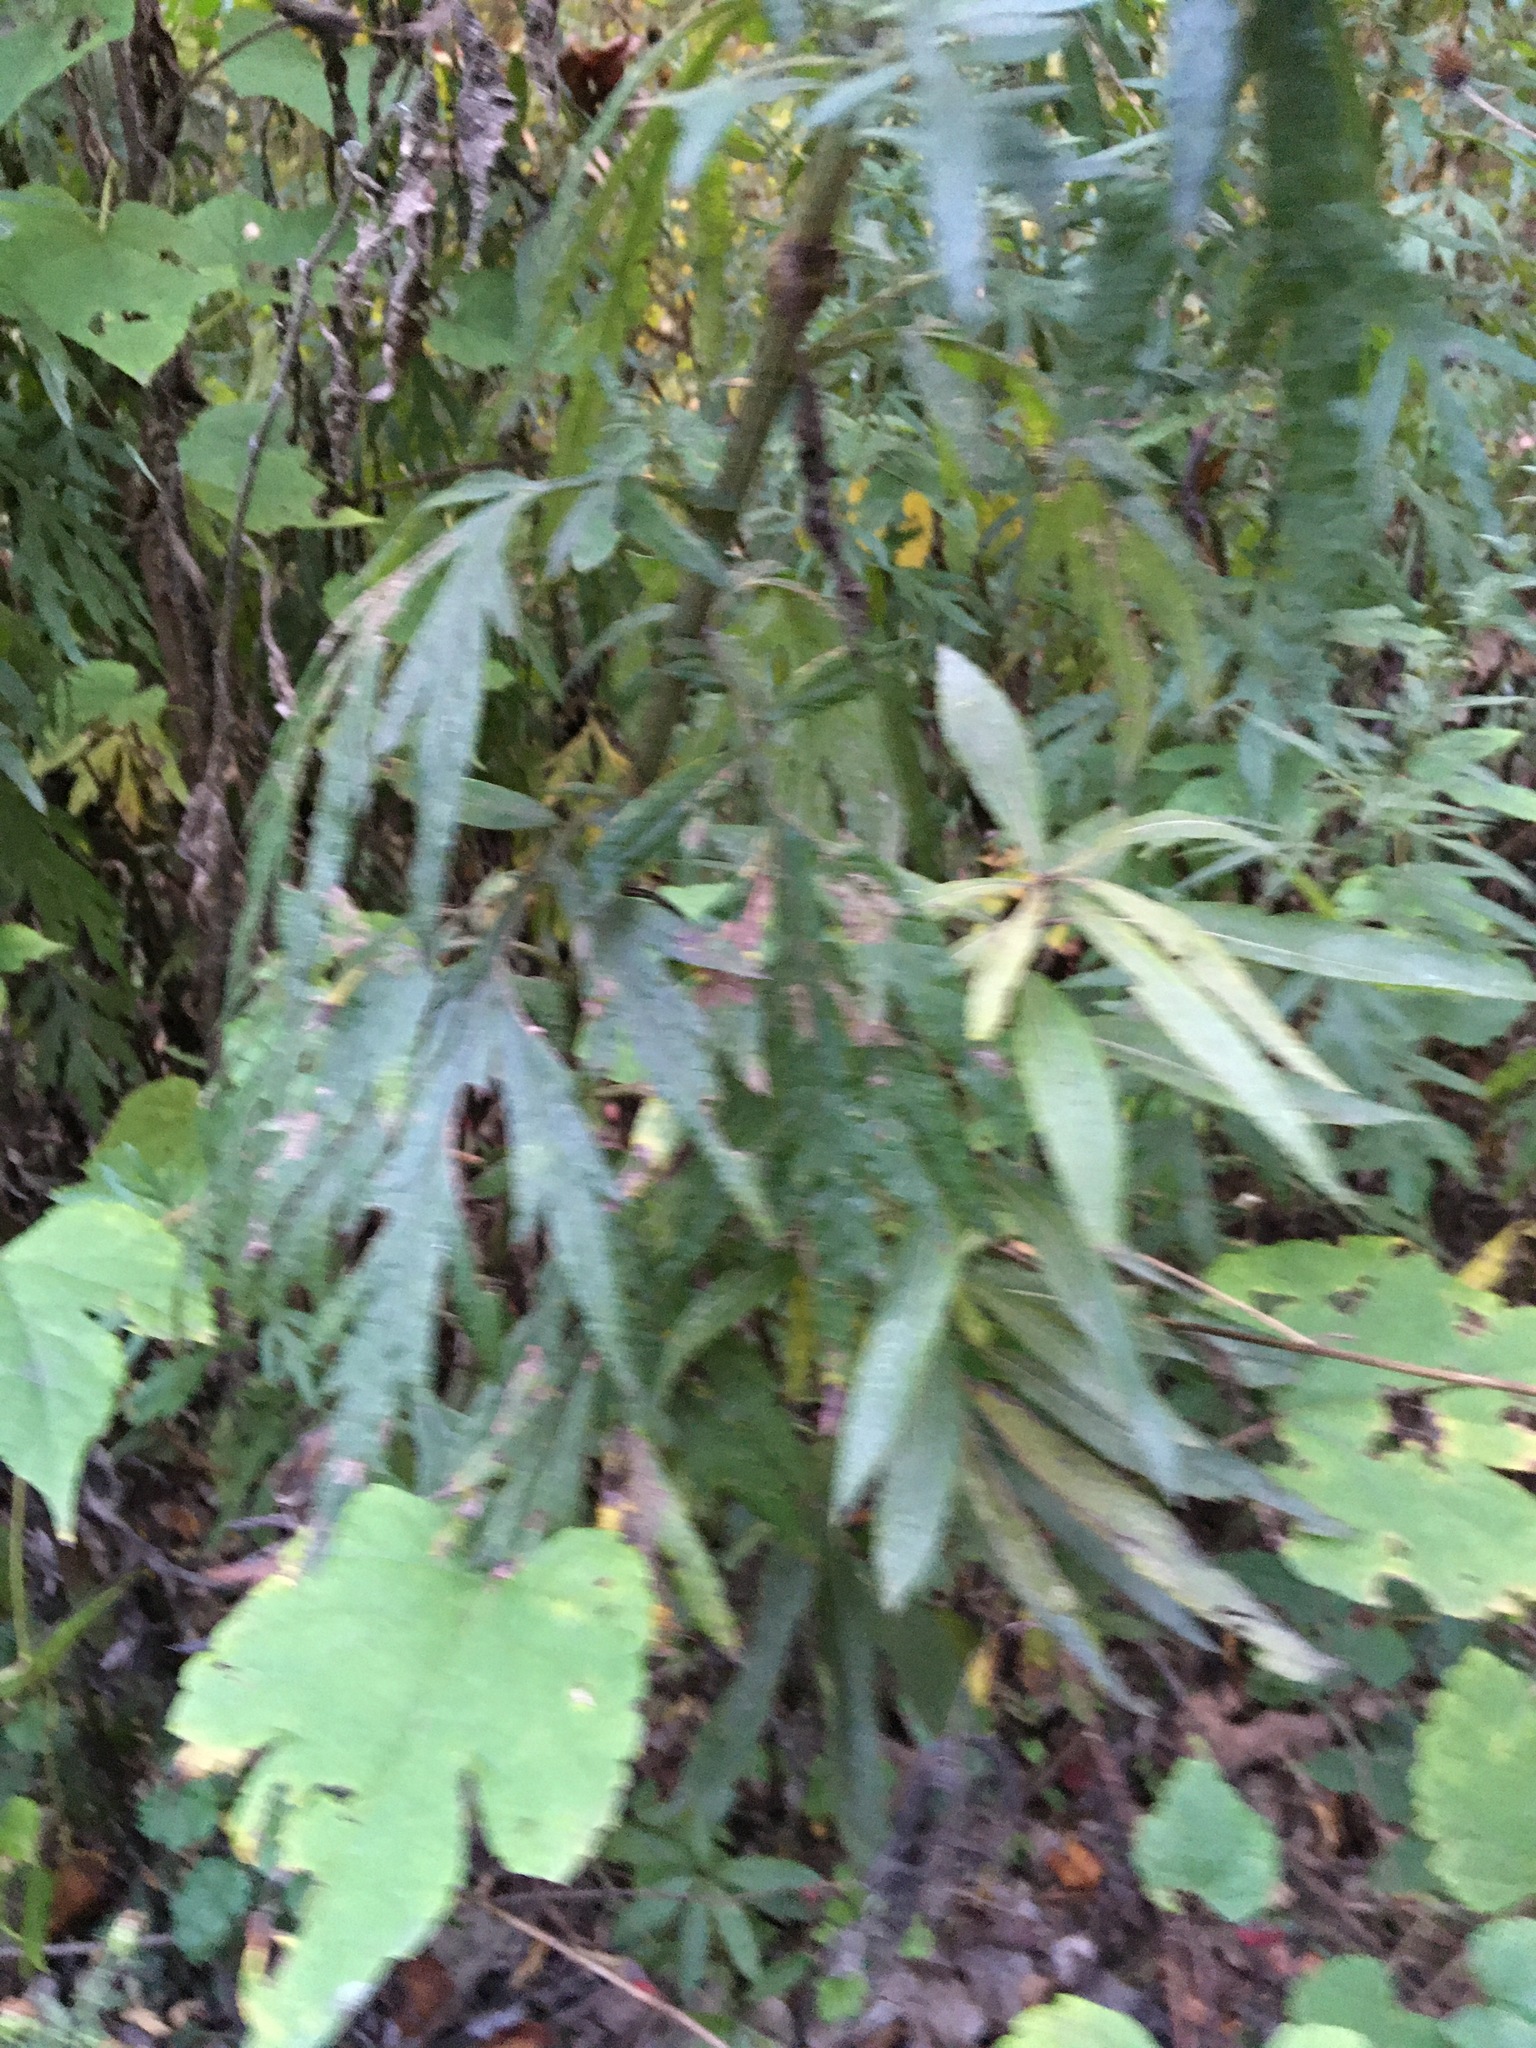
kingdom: Plantae
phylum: Tracheophyta
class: Magnoliopsida
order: Asterales
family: Asteraceae
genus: Artemisia
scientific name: Artemisia vulgaris
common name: Mugwort
